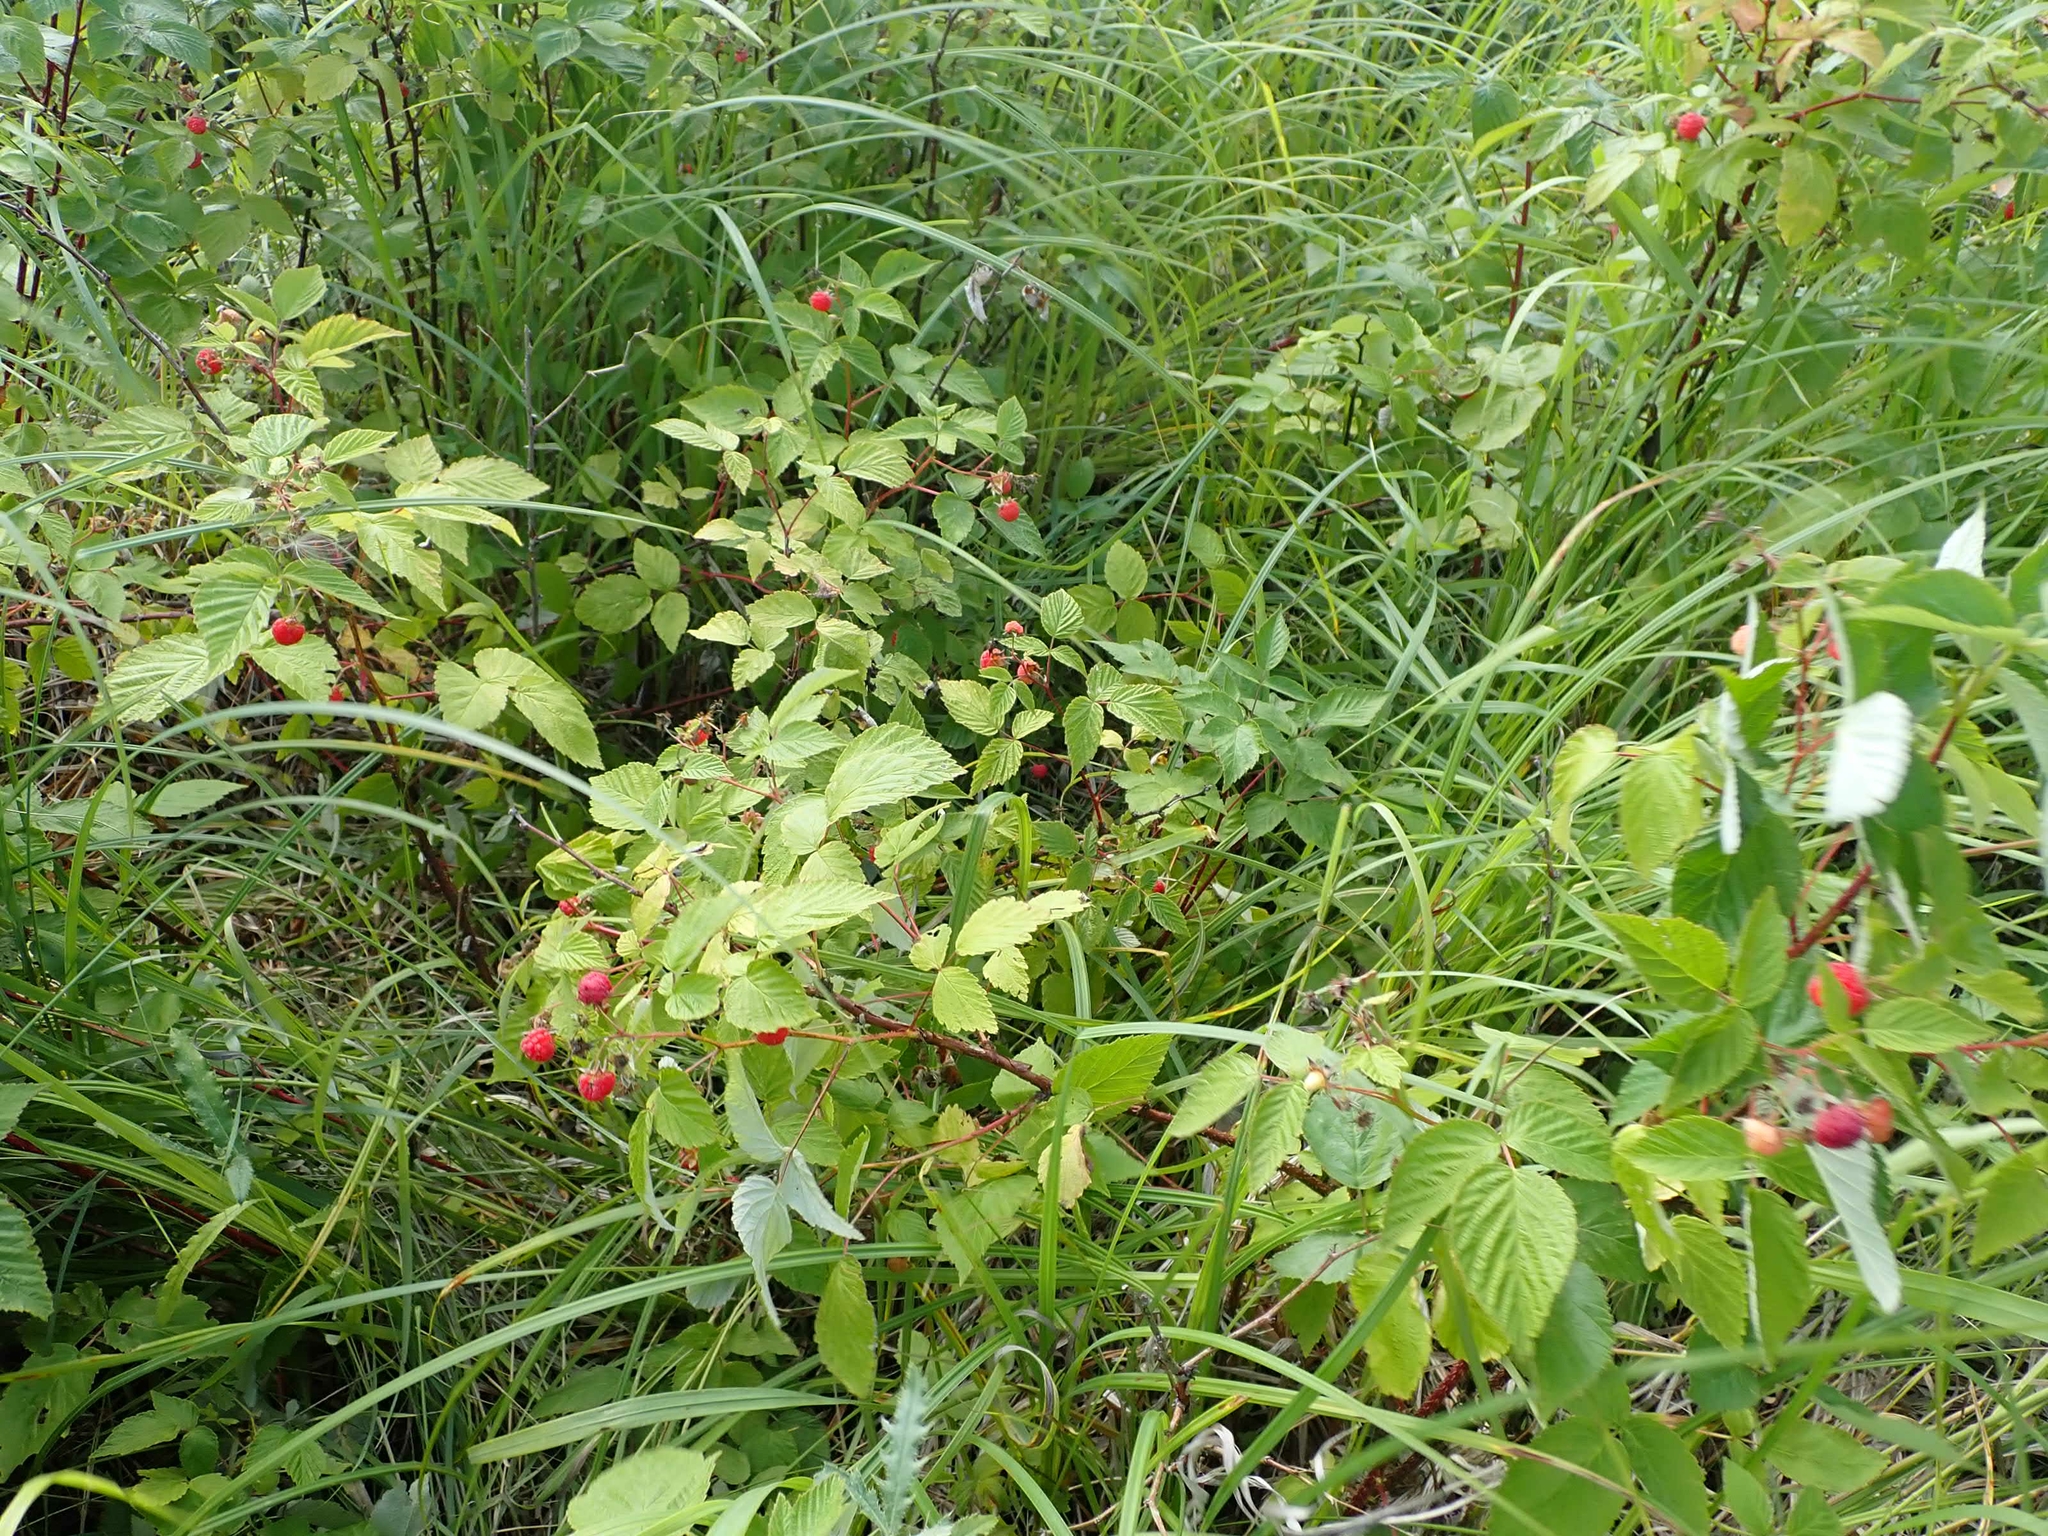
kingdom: Plantae
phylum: Tracheophyta
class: Magnoliopsida
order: Rosales
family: Rosaceae
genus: Rubus
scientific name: Rubus idaeus
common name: Raspberry
